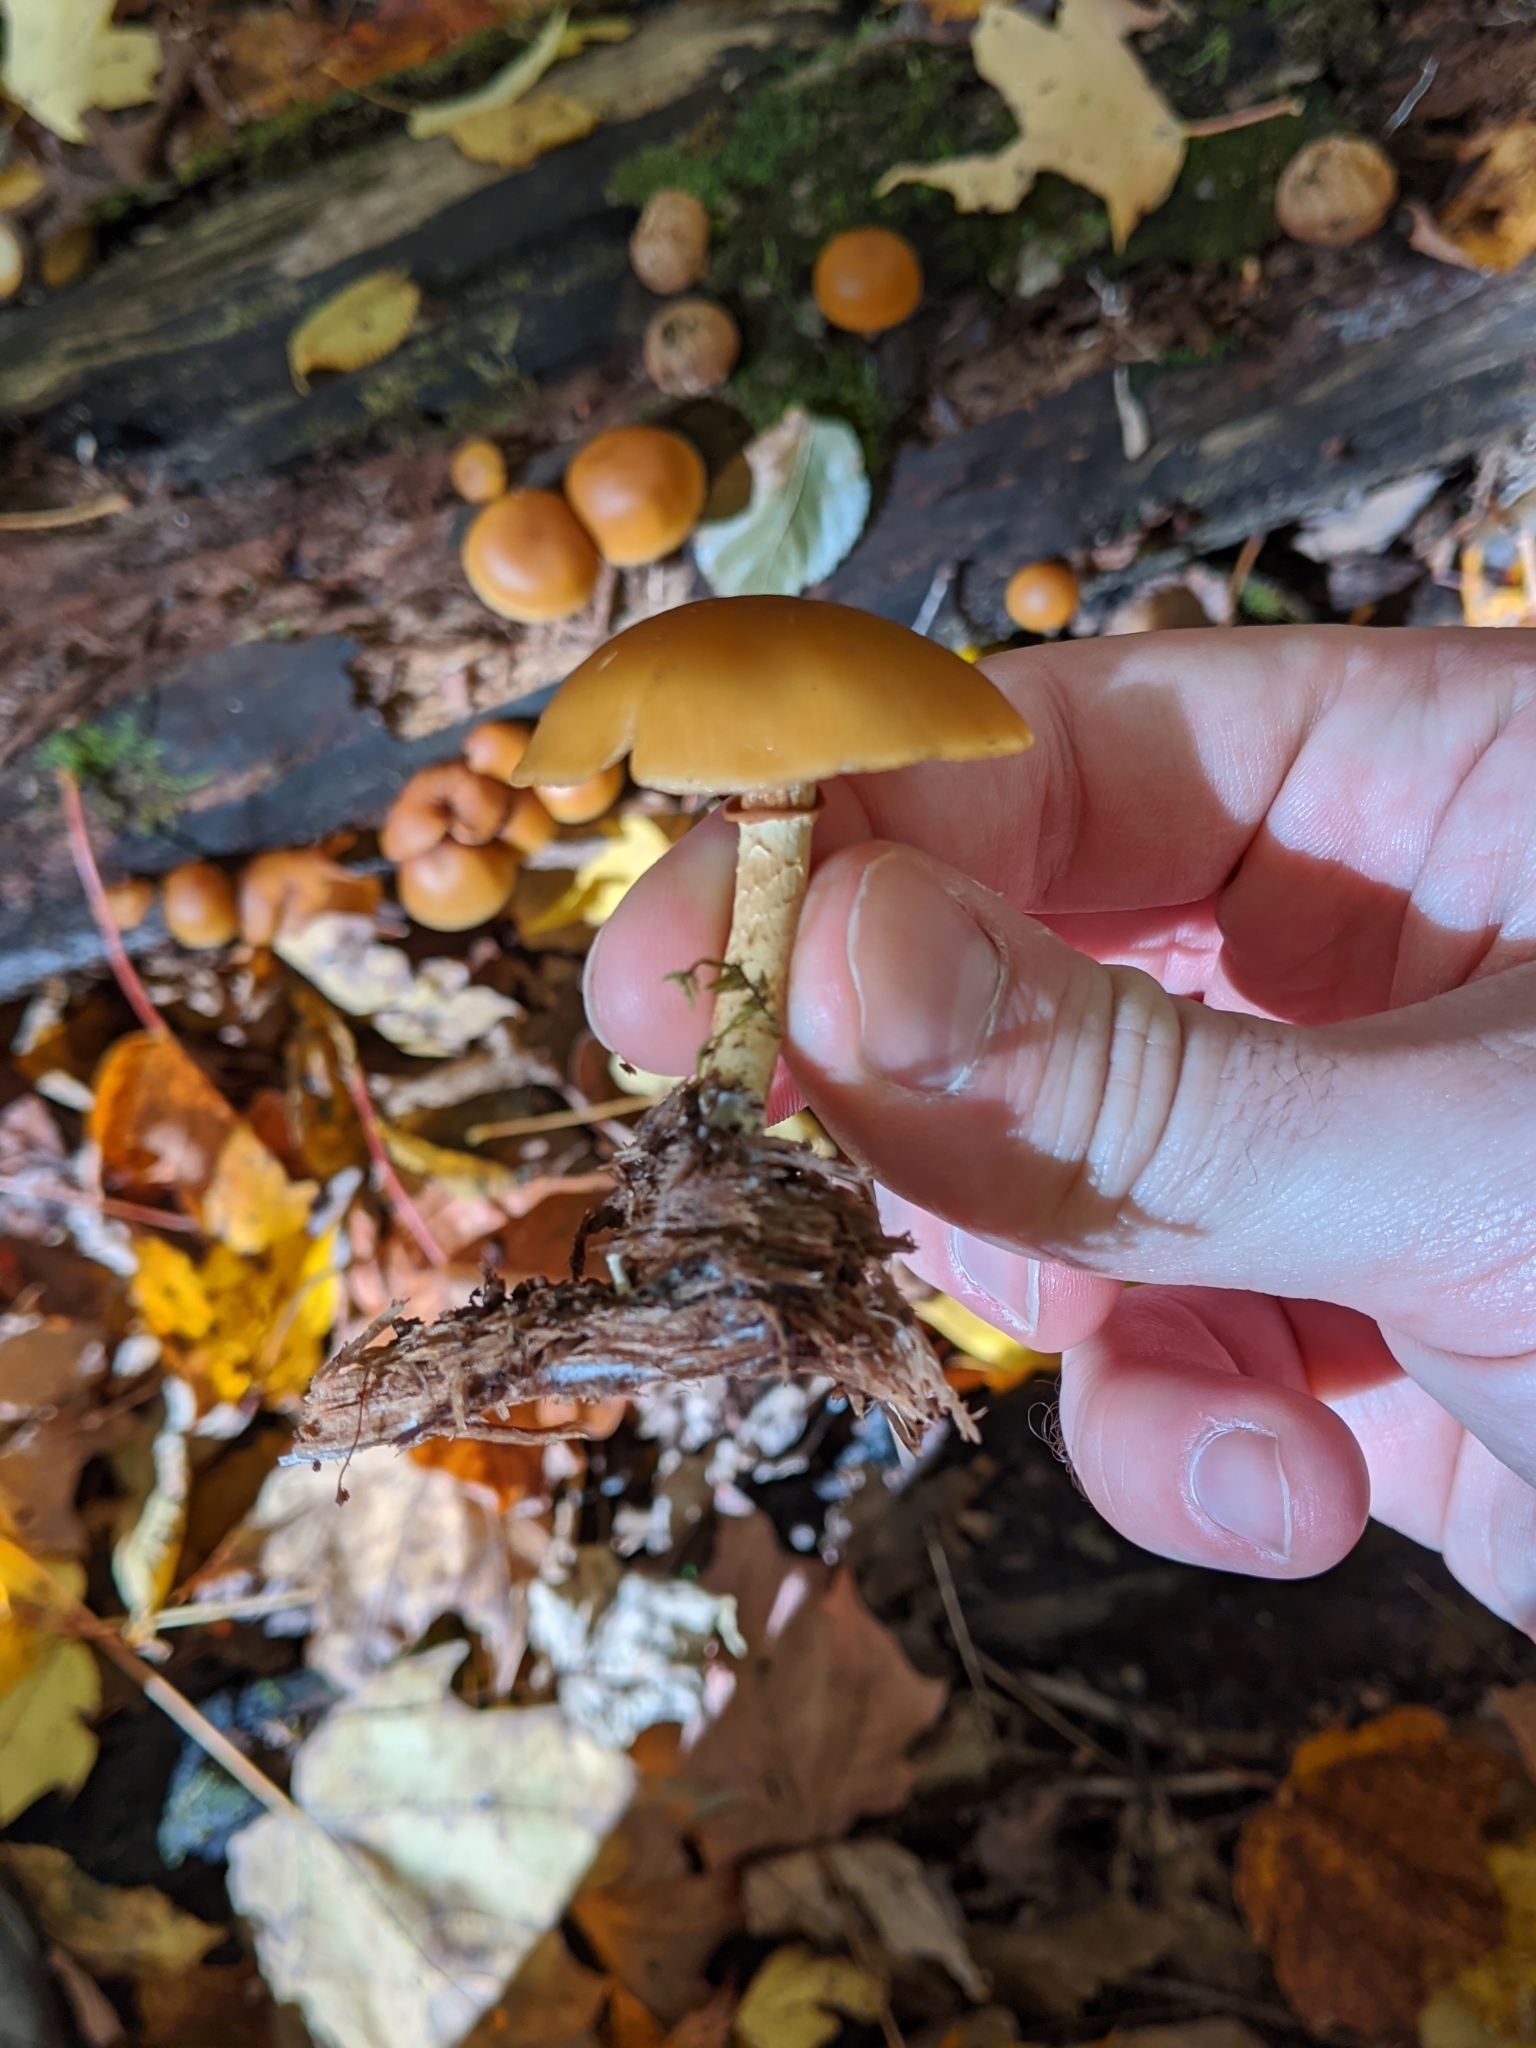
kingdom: Fungi
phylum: Basidiomycota
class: Agaricomycetes
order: Agaricales
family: Hymenogastraceae
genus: Galerina
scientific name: Galerina marginata
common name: Funeral bell
